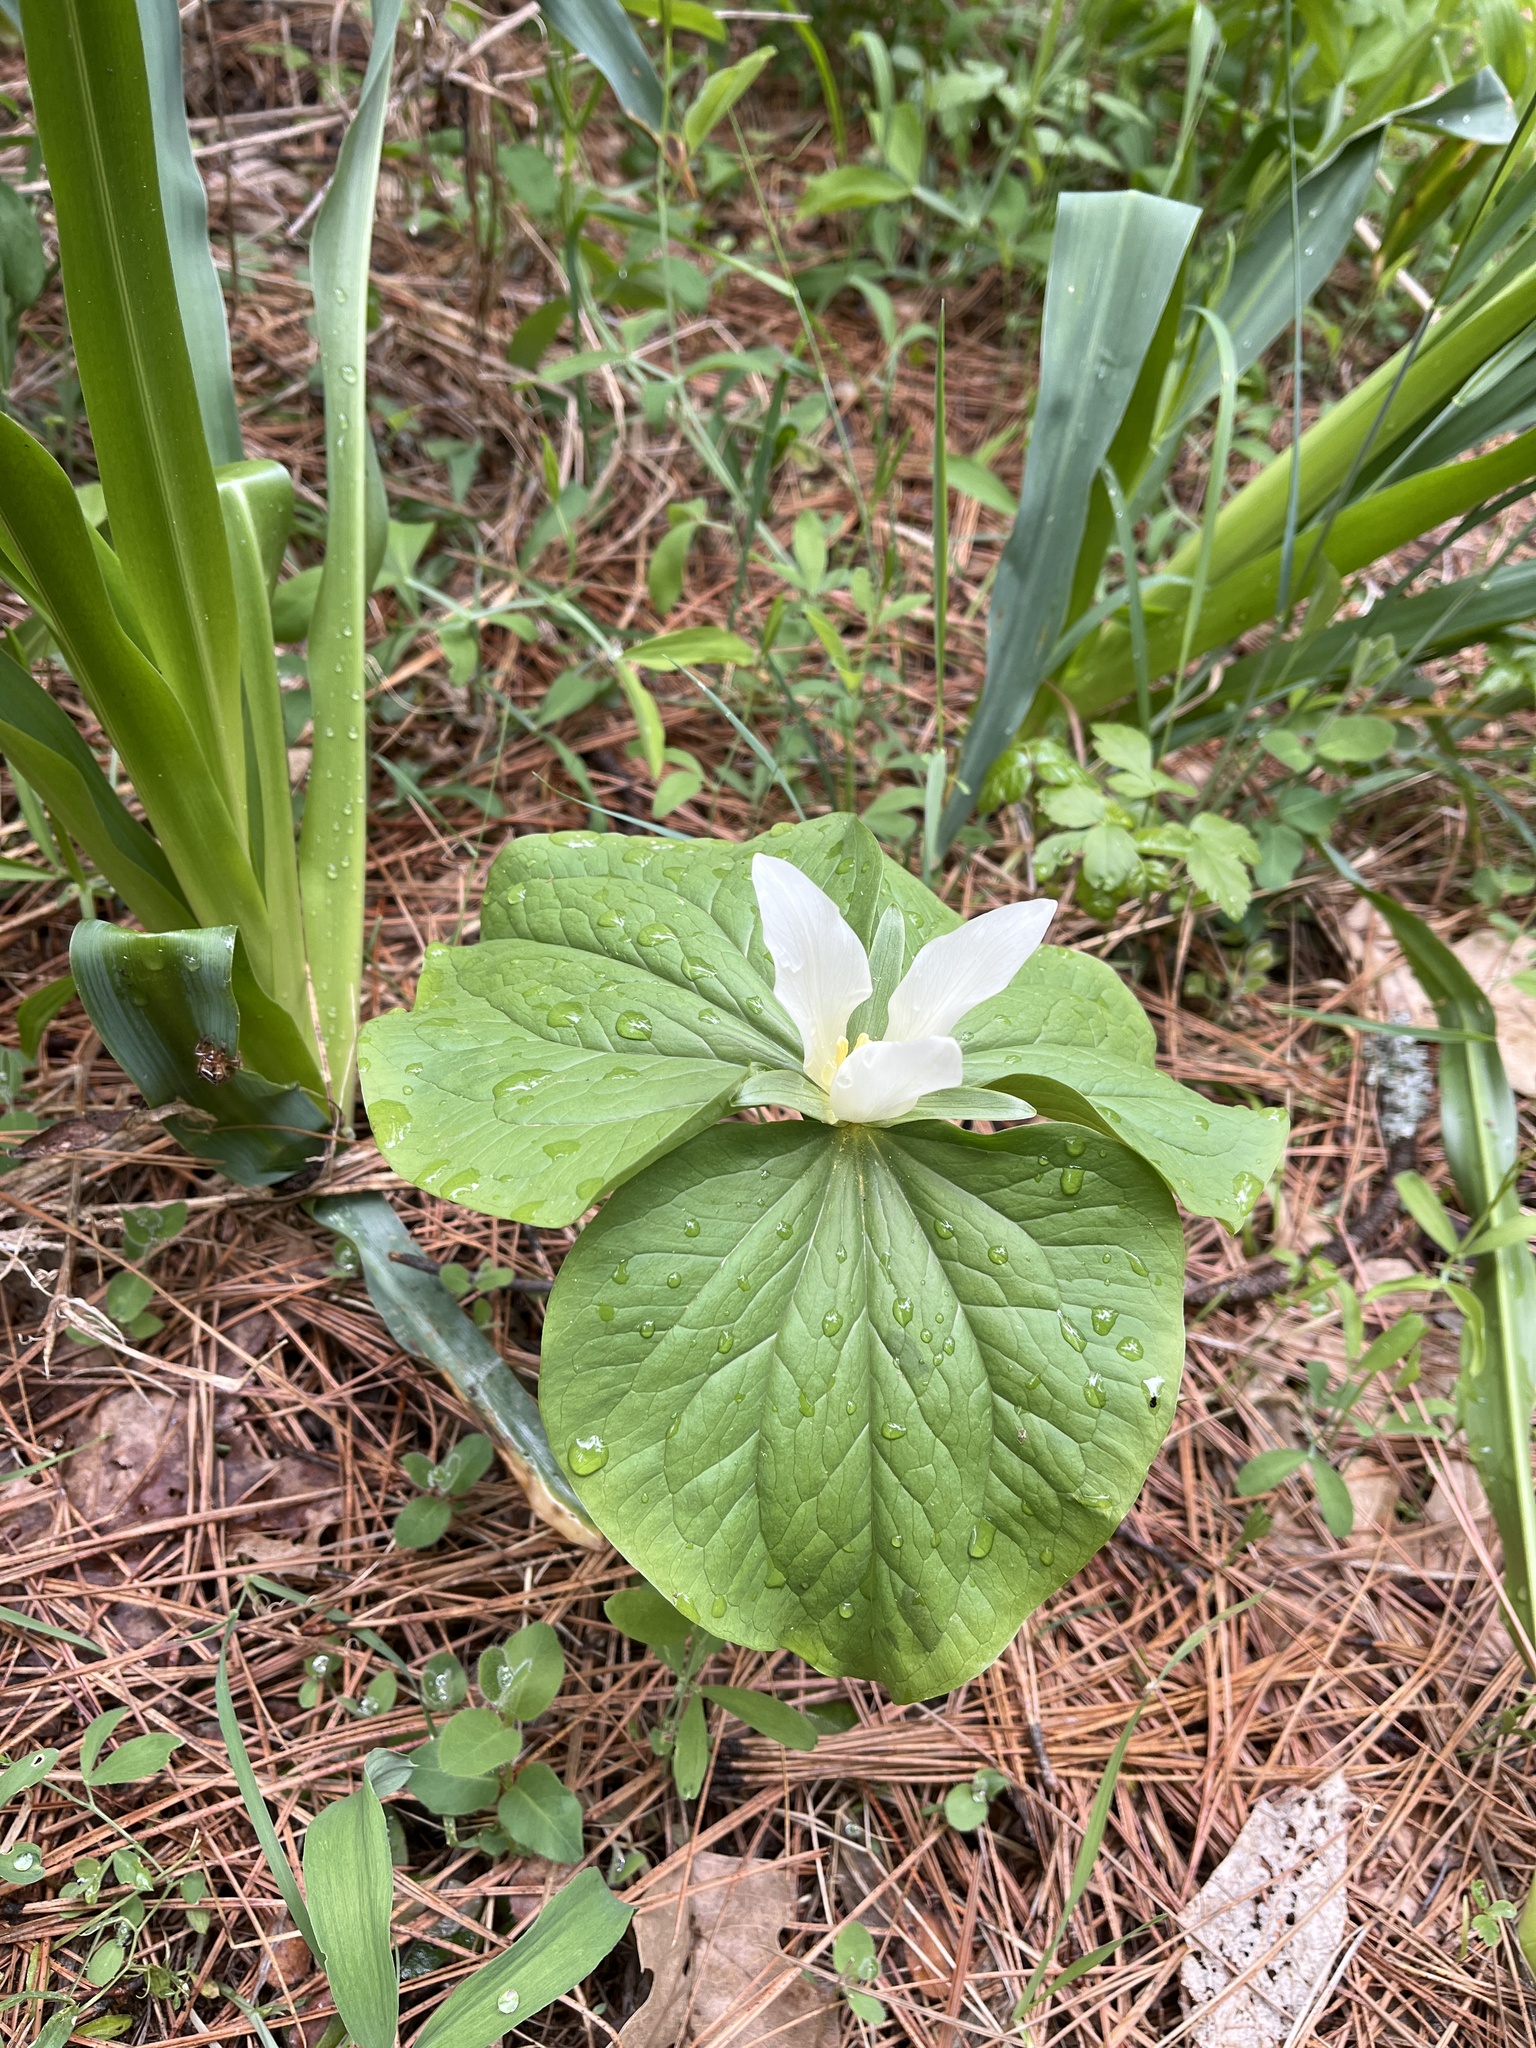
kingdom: Plantae
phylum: Tracheophyta
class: Liliopsida
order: Liliales
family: Melanthiaceae
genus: Trillium
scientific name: Trillium albidum
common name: Freeman's trillium
